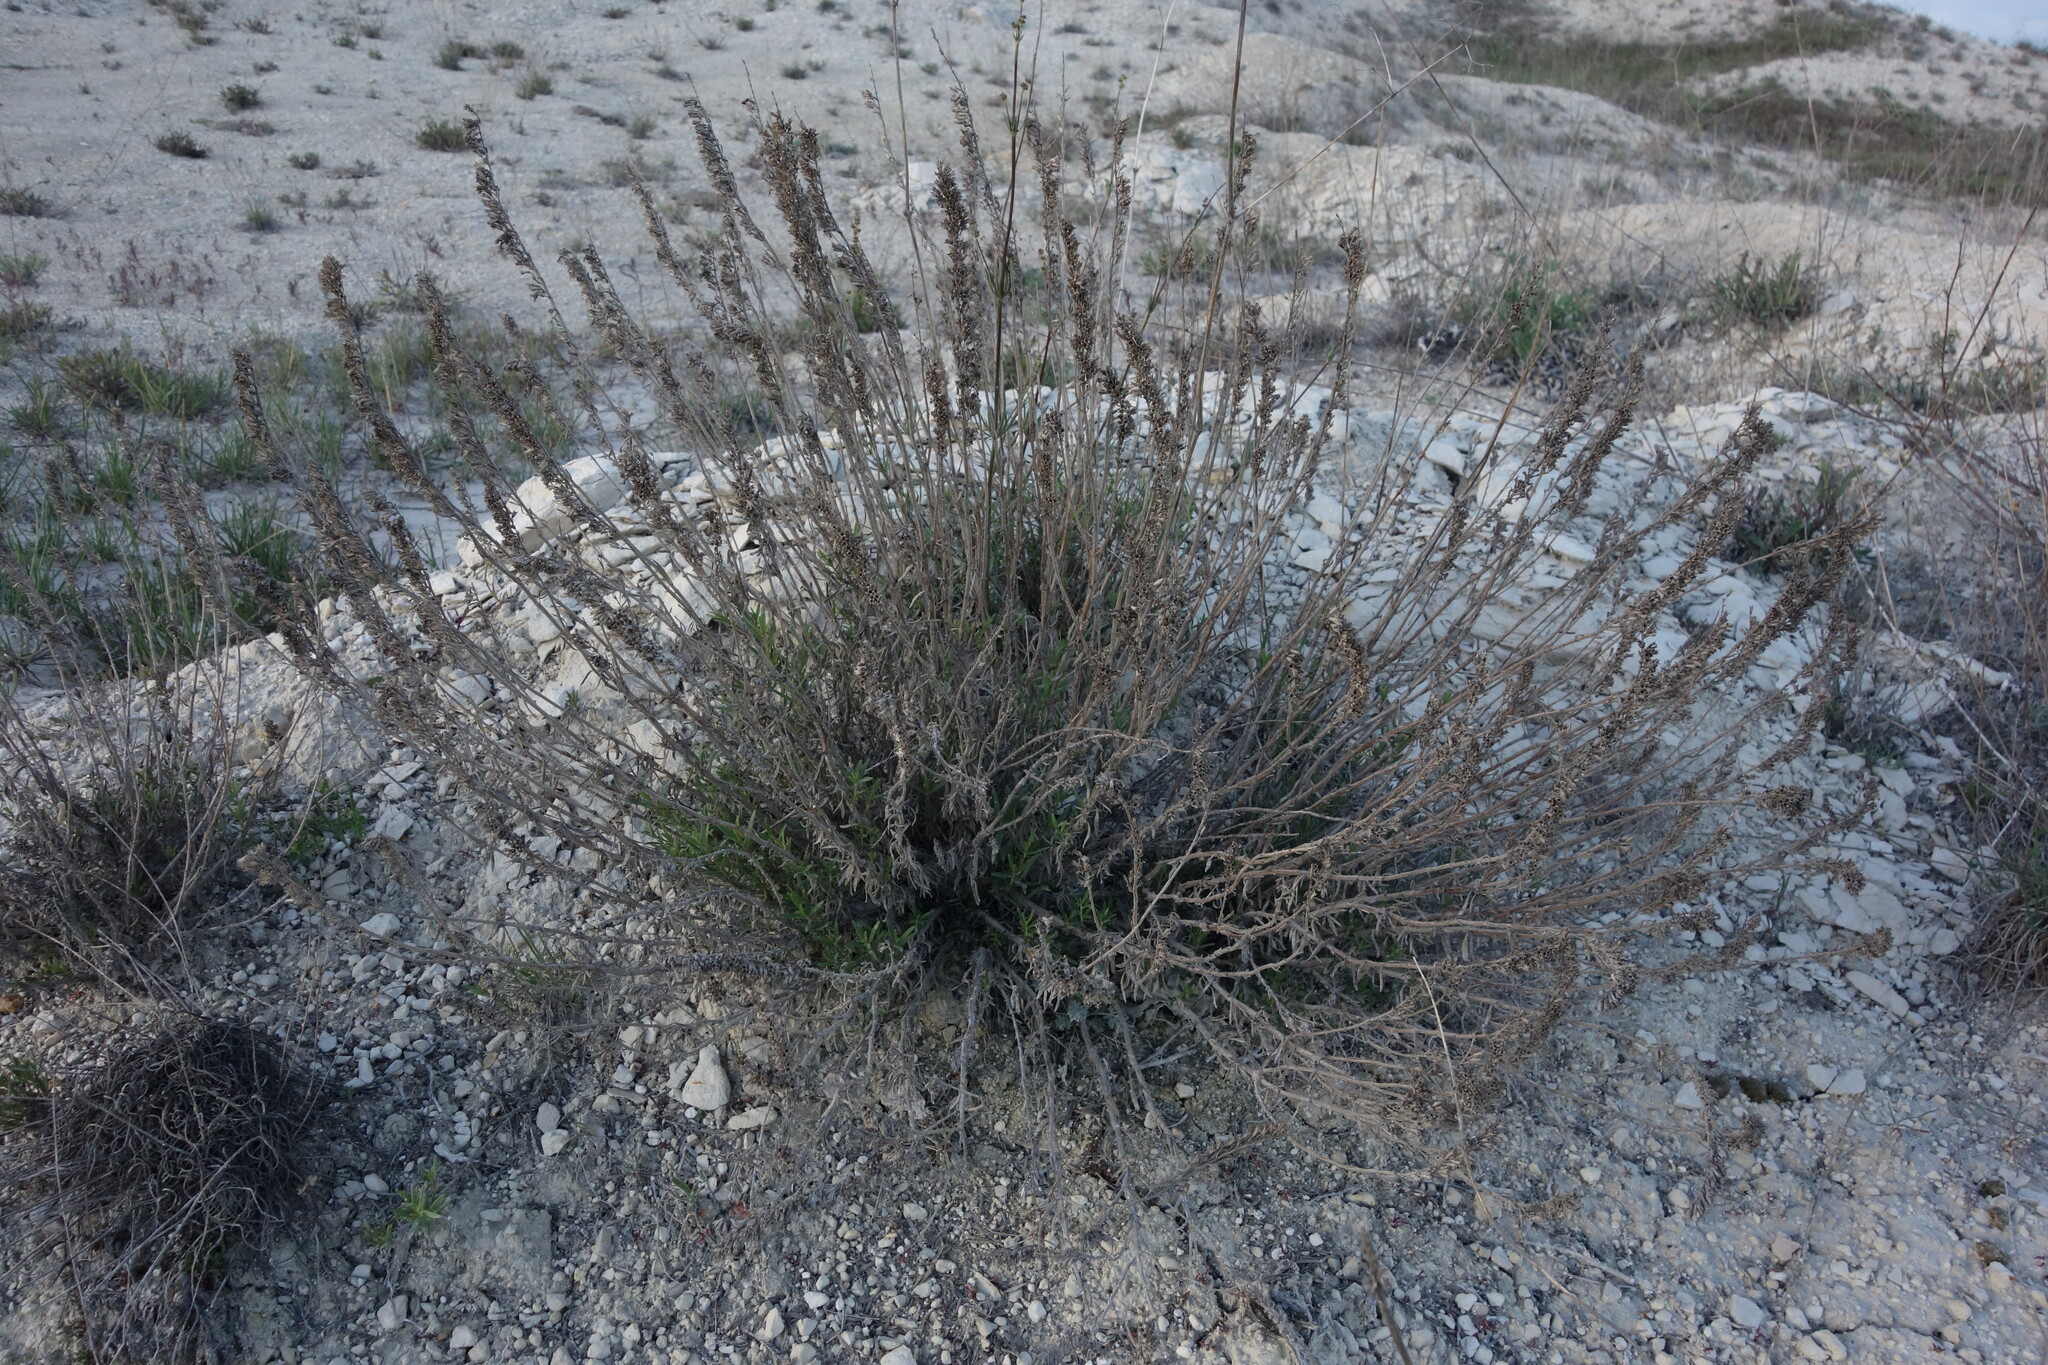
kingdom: Plantae
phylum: Tracheophyta
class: Magnoliopsida
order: Lamiales
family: Lamiaceae
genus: Hyssopus
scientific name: Hyssopus officinalis
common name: Hyssop
